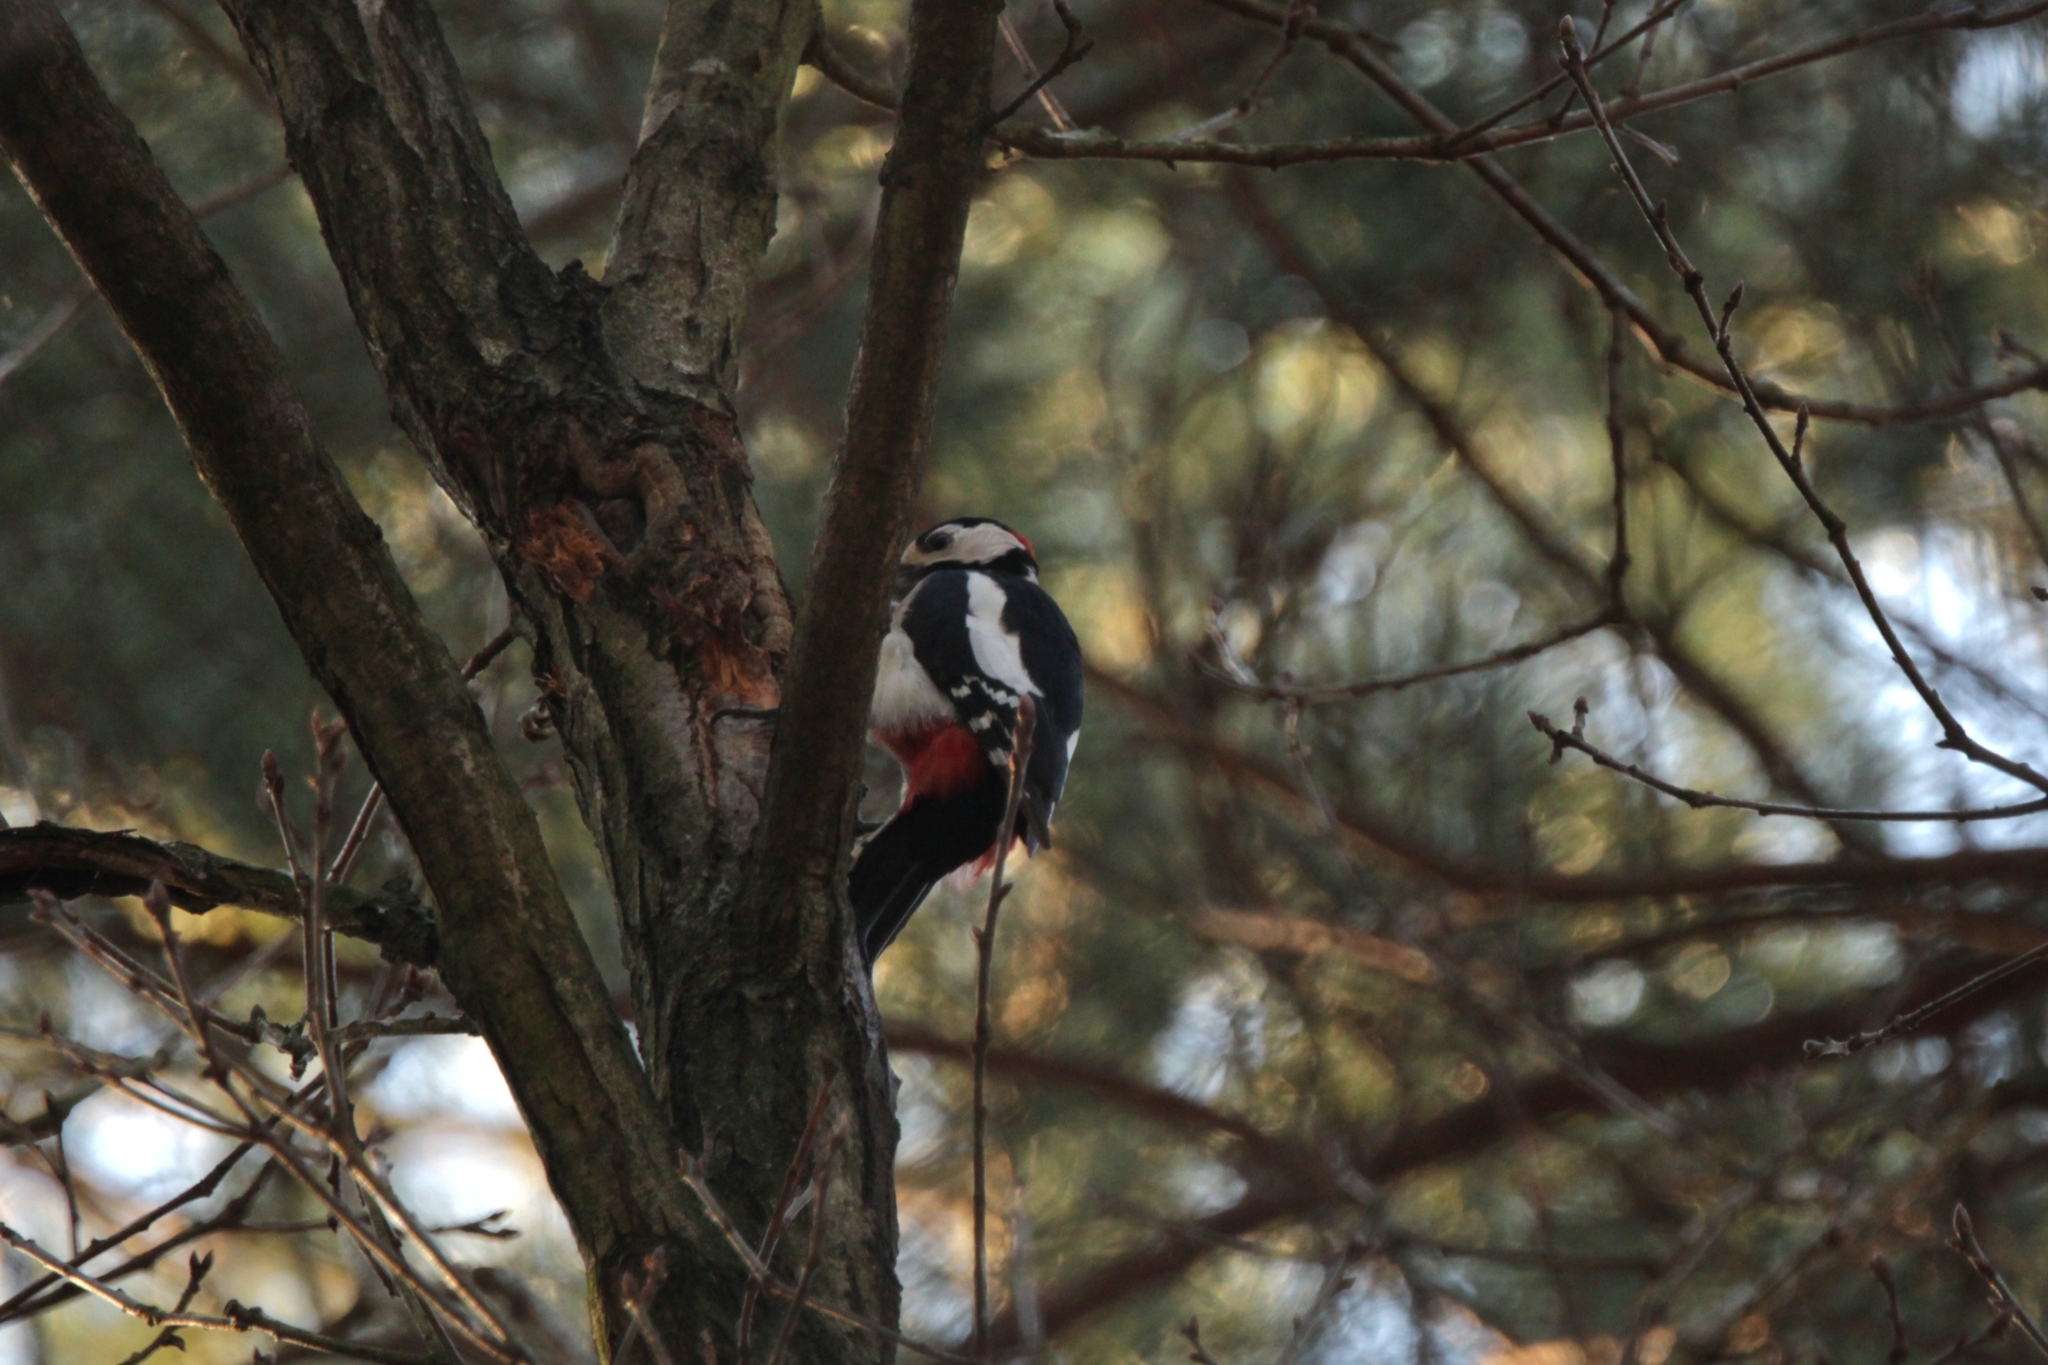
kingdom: Animalia
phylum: Chordata
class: Aves
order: Piciformes
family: Picidae
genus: Dendrocopos
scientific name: Dendrocopos major
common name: Great spotted woodpecker
